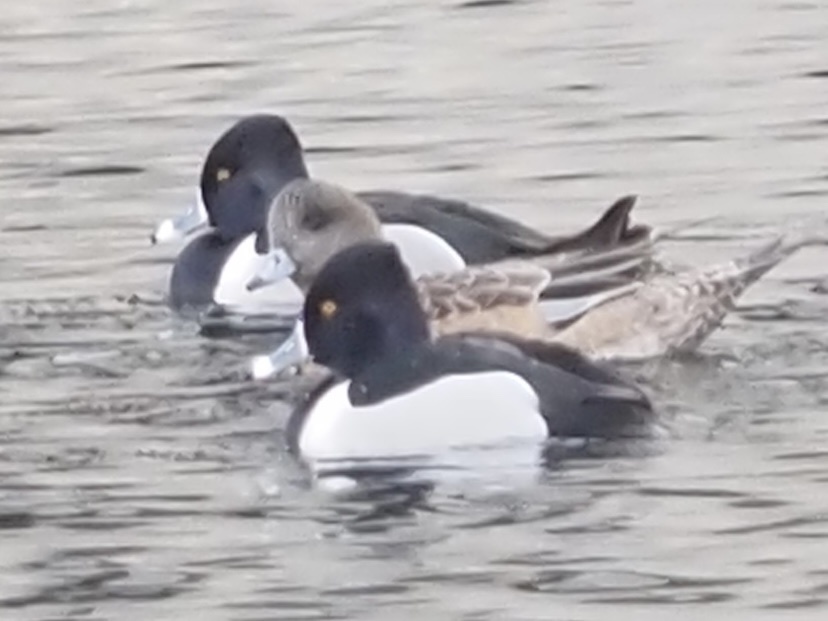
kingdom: Animalia
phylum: Chordata
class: Aves
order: Anseriformes
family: Anatidae
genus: Aythya
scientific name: Aythya collaris
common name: Ring-necked duck
